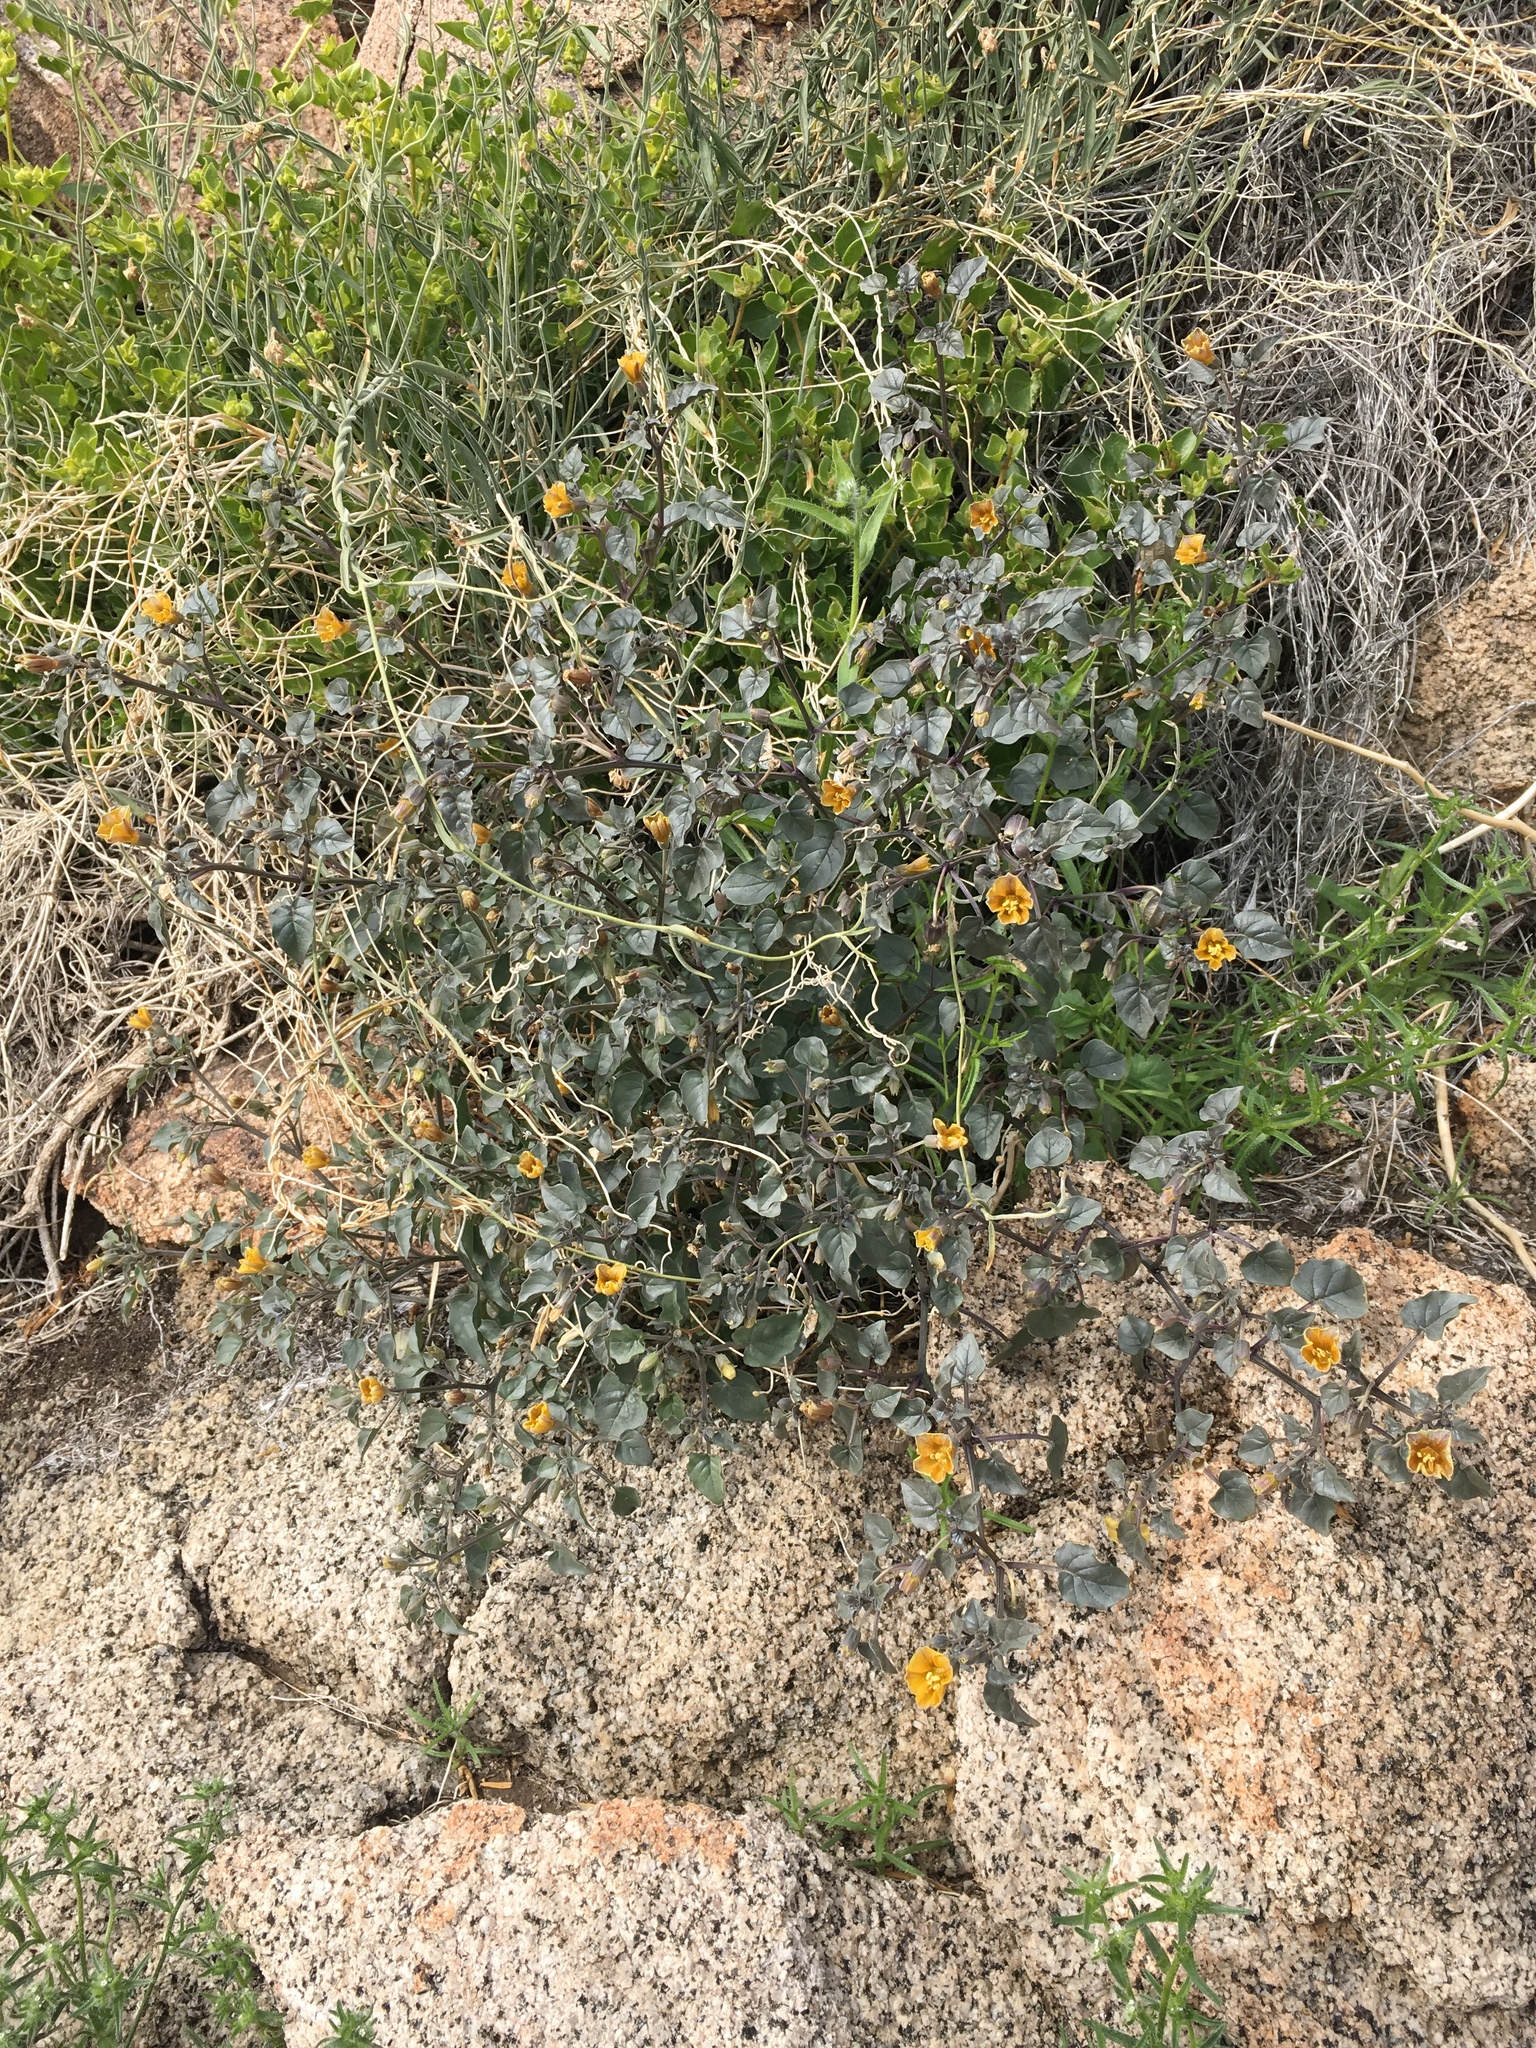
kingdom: Plantae
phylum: Tracheophyta
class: Magnoliopsida
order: Solanales
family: Solanaceae
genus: Physalis
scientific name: Physalis crassifolia
